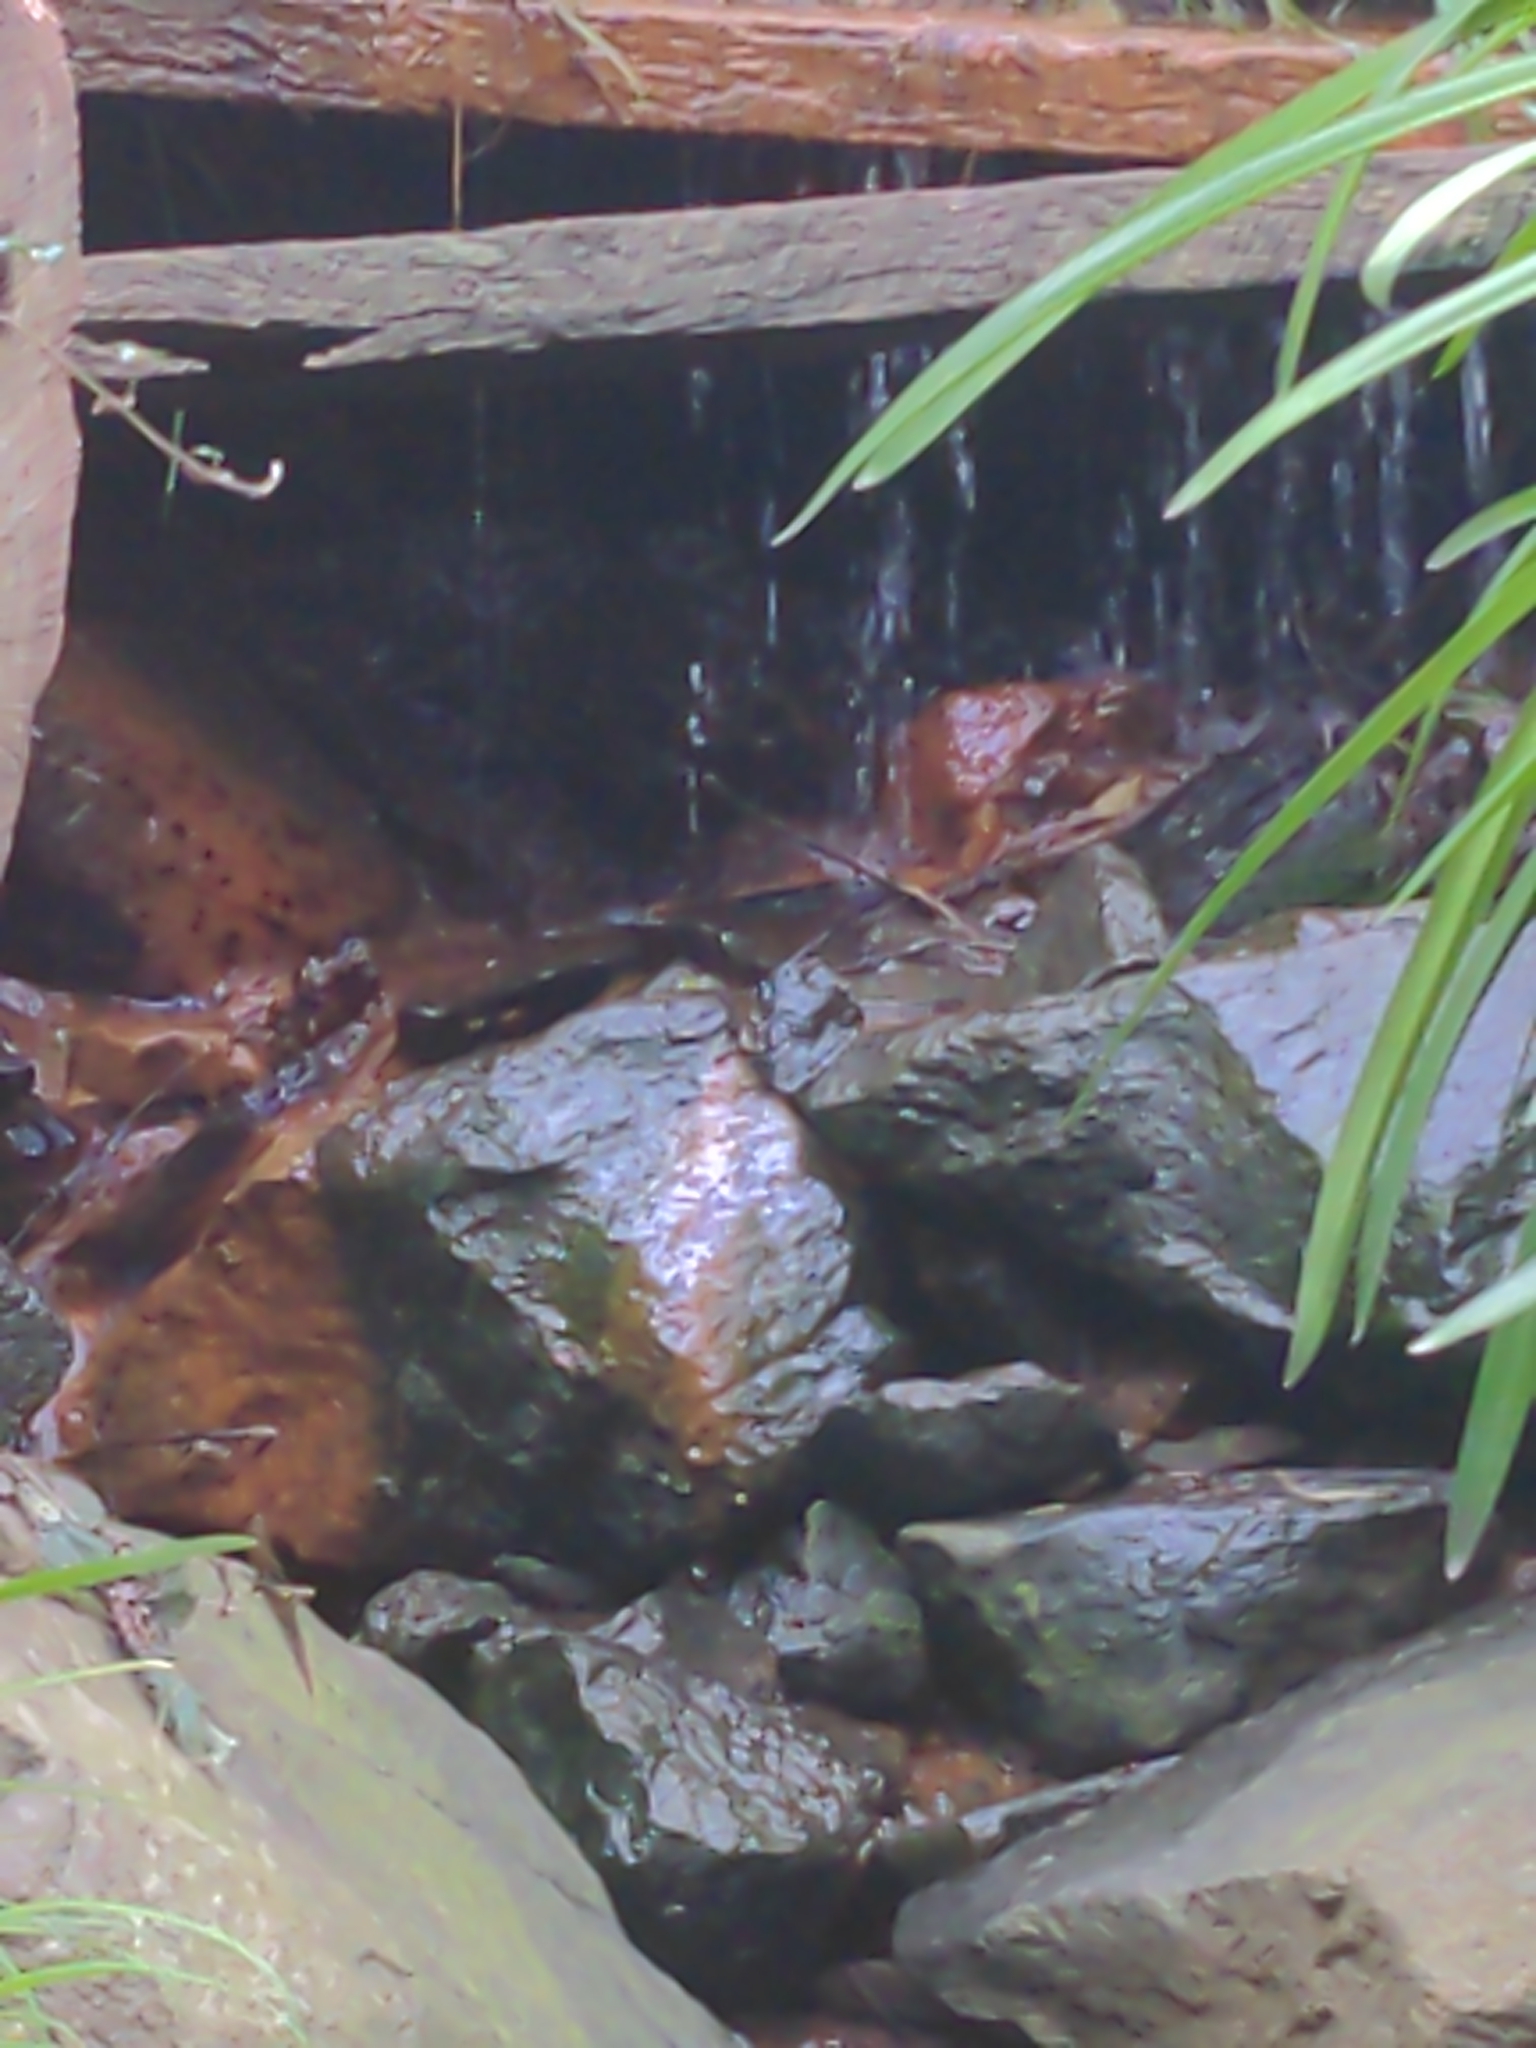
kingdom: Animalia
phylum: Chordata
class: Amphibia
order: Anura
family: Myobatrachidae
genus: Crinia
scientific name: Crinia signifera
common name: Brown froglet
